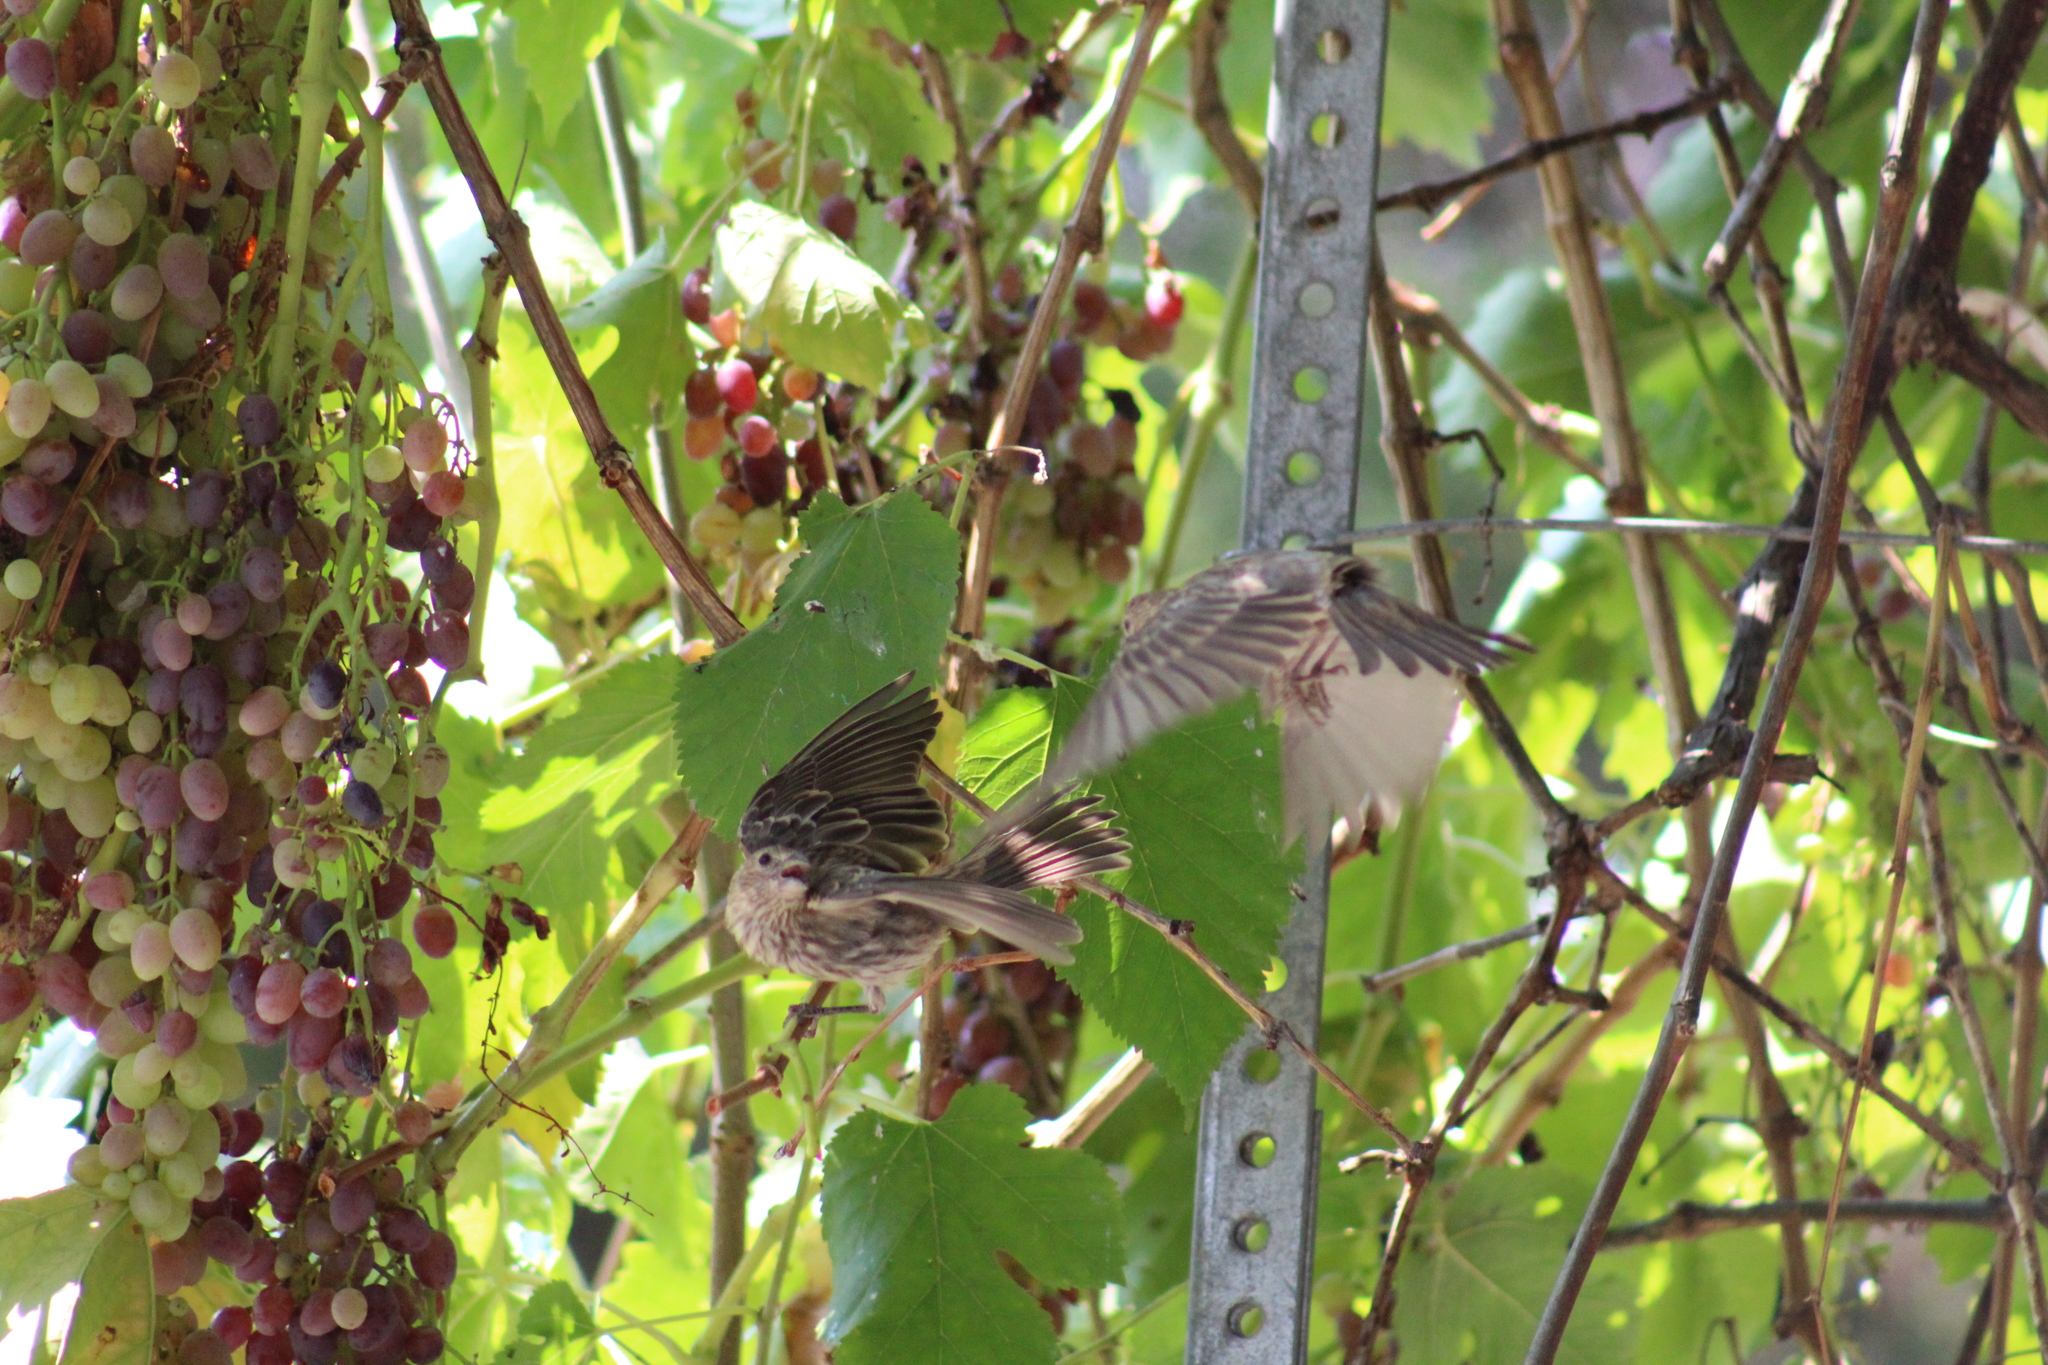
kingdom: Animalia
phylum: Chordata
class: Aves
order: Passeriformes
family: Fringillidae
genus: Haemorhous
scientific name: Haemorhous mexicanus
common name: House finch
